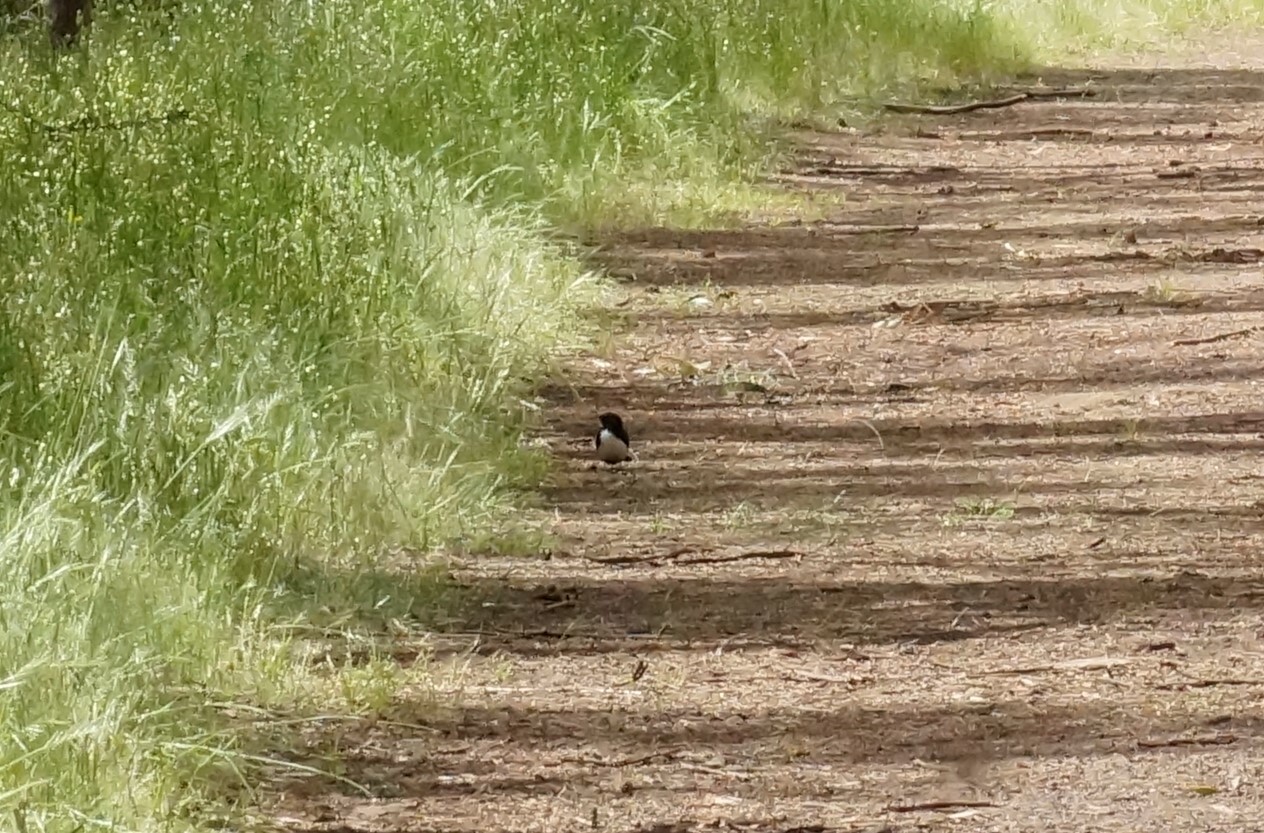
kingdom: Animalia
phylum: Chordata
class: Aves
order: Passeriformes
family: Rhipiduridae
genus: Rhipidura
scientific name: Rhipidura leucophrys
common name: Willie wagtail
